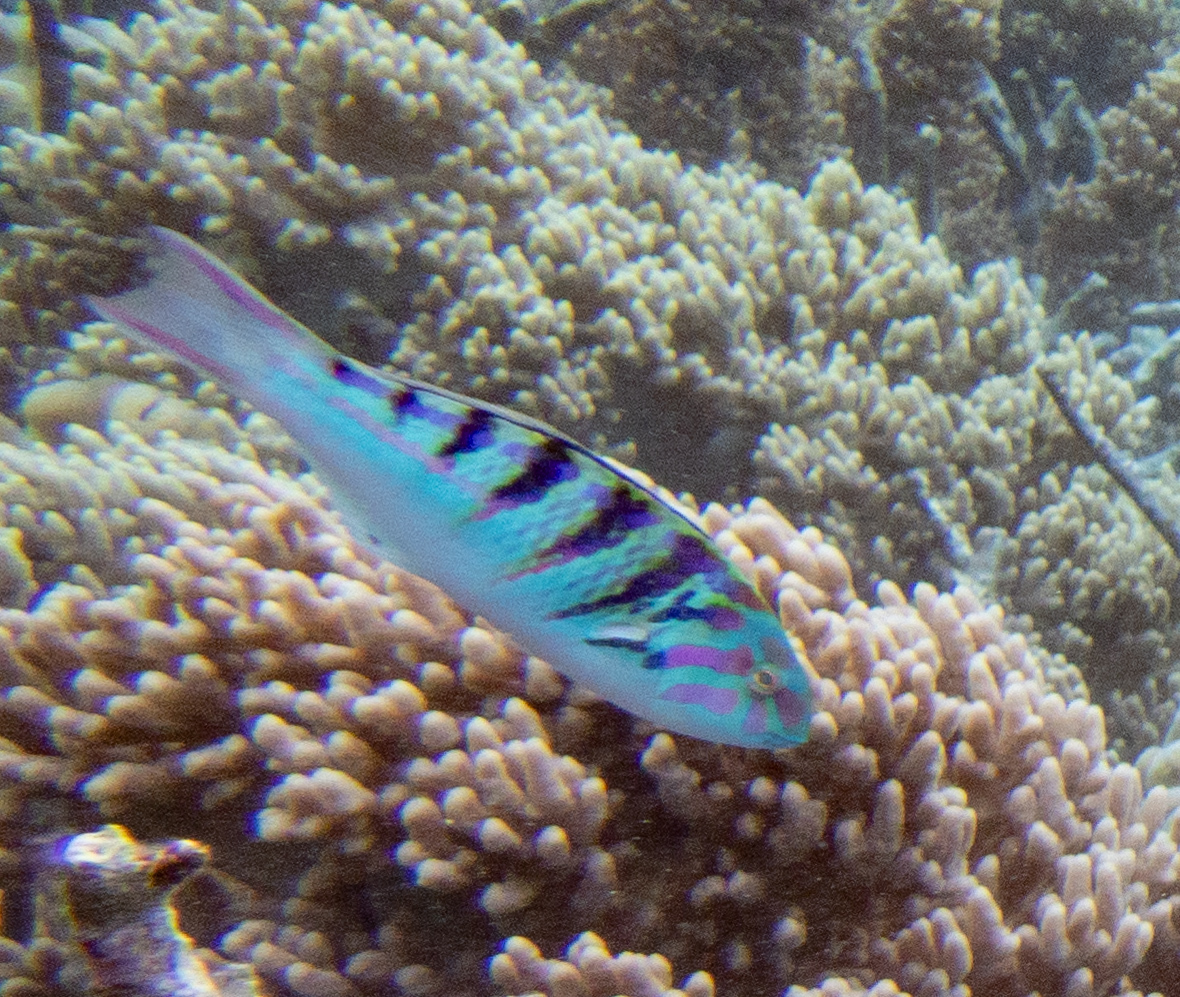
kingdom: Animalia
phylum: Chordata
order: Perciformes
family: Labridae
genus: Thalassoma
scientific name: Thalassoma hardwicke
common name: Sixbar wrasse
